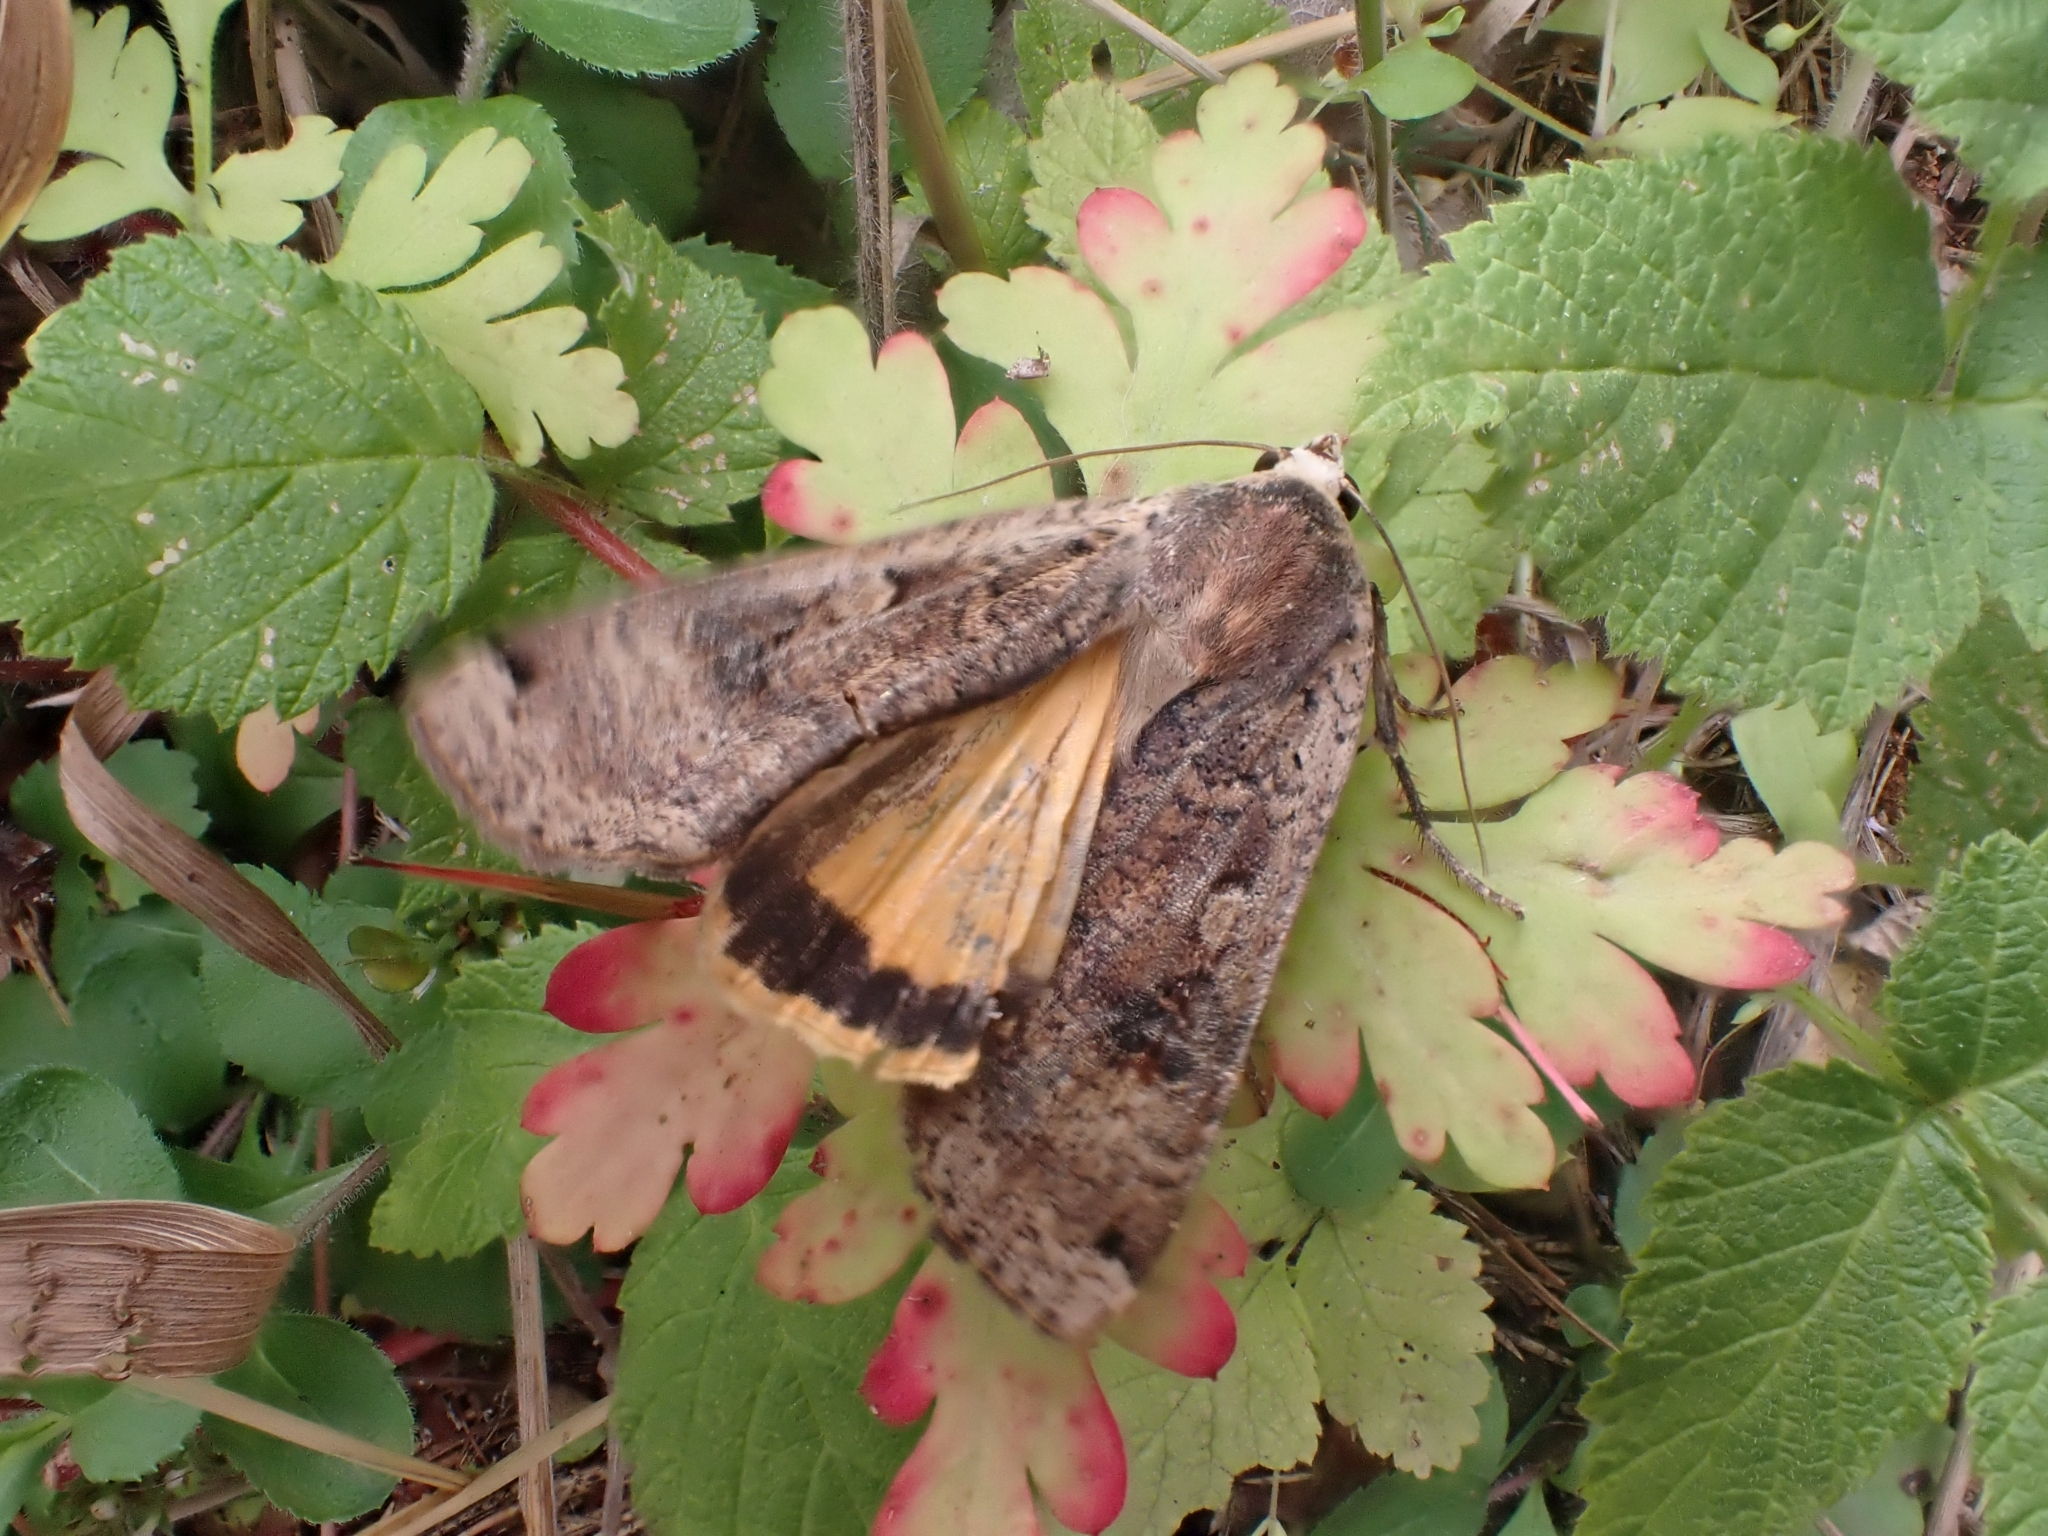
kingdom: Animalia
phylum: Arthropoda
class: Insecta
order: Lepidoptera
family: Noctuidae
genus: Noctua
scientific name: Noctua pronuba
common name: Large yellow underwing
